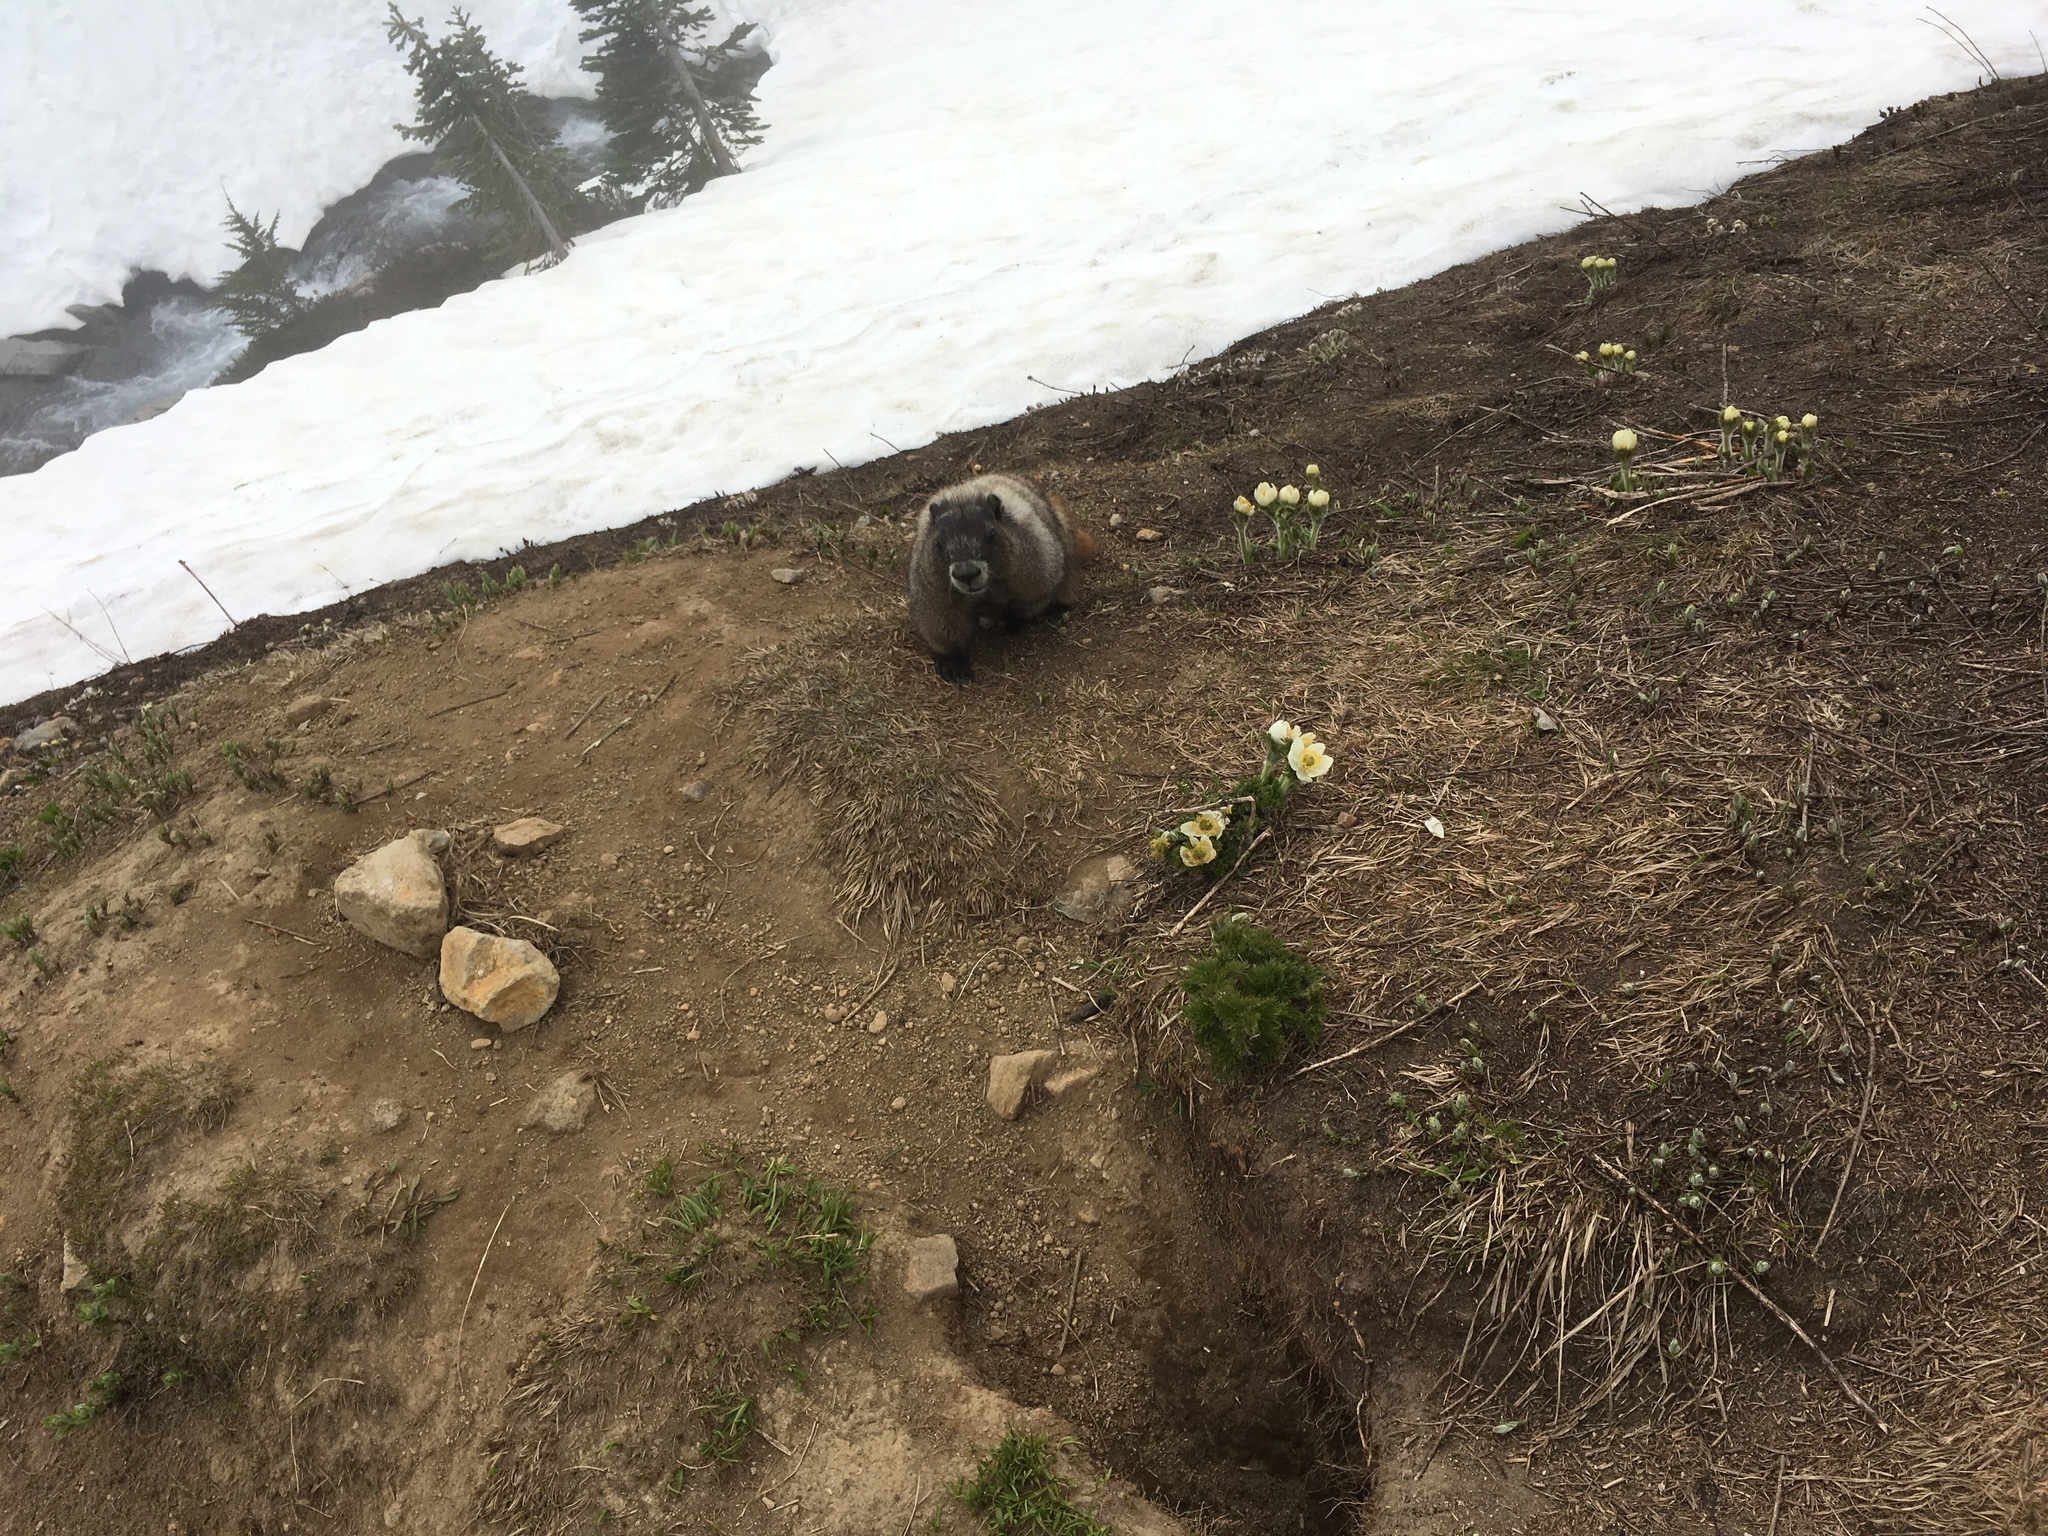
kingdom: Animalia
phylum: Chordata
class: Mammalia
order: Rodentia
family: Sciuridae
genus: Marmota
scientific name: Marmota caligata
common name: Hoary marmot
